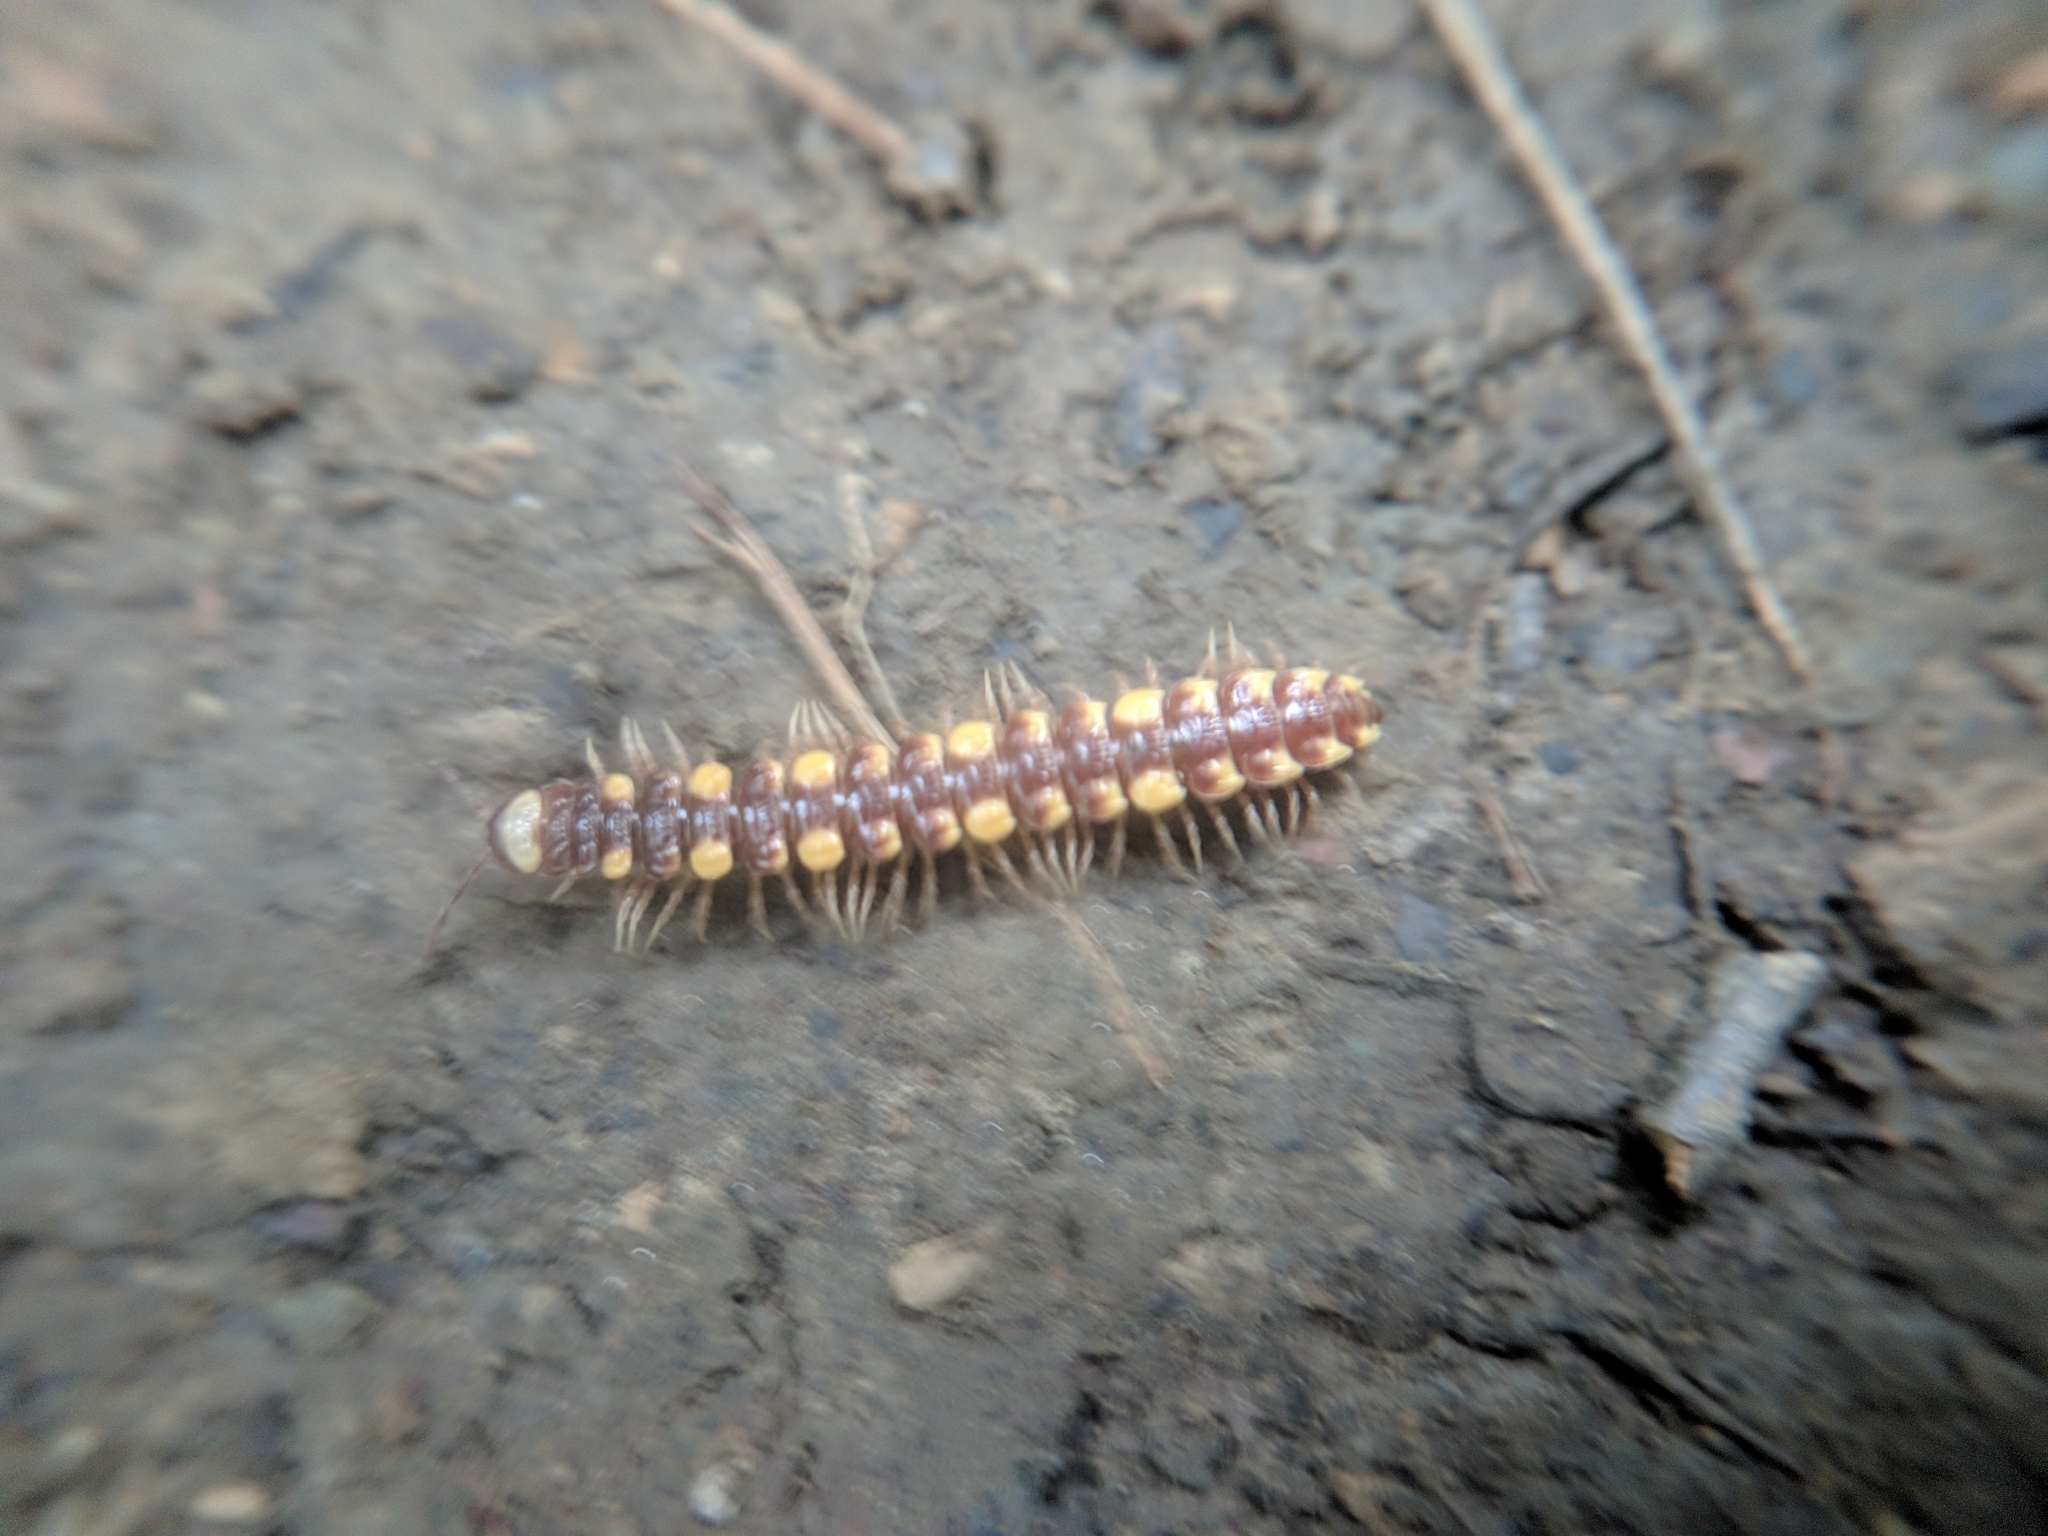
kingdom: Animalia
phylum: Arthropoda
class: Diplopoda
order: Polydesmida
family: Polydesmidae
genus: Polydesmus
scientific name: Polydesmus collaris
